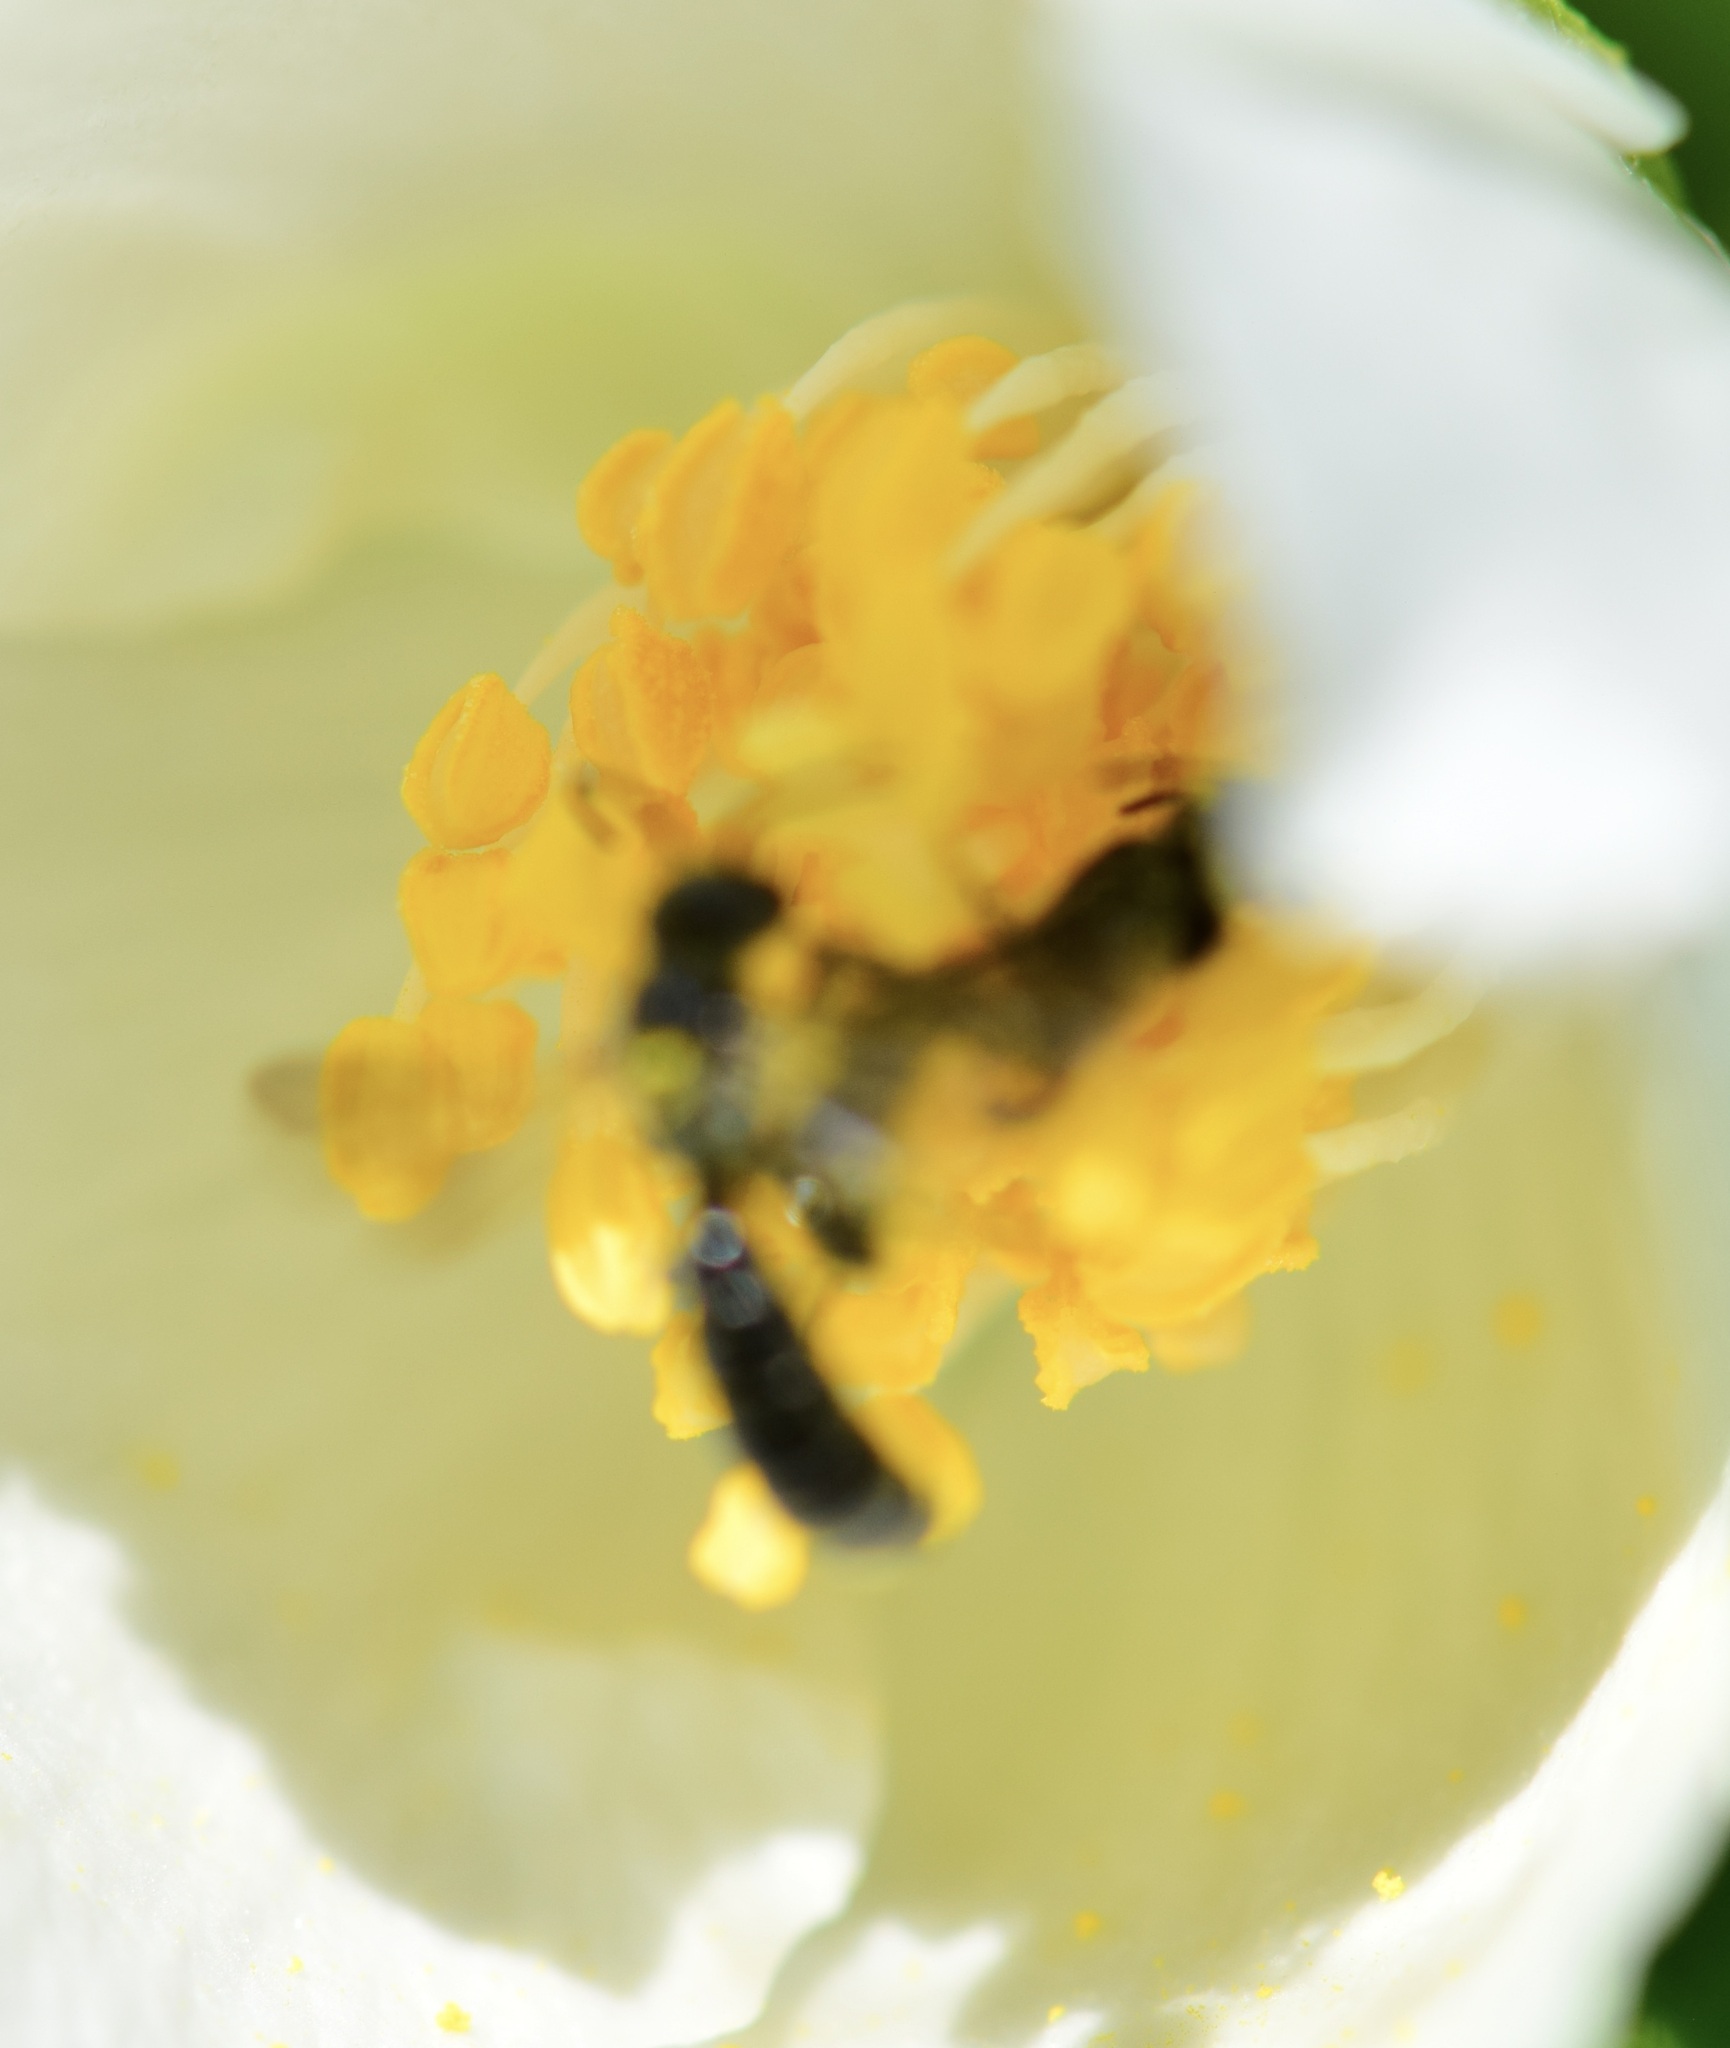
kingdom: Animalia
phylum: Arthropoda
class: Insecta
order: Hymenoptera
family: Megachilidae
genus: Chelostoma
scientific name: Chelostoma philadelphi
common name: Mock-orange scissor bee
